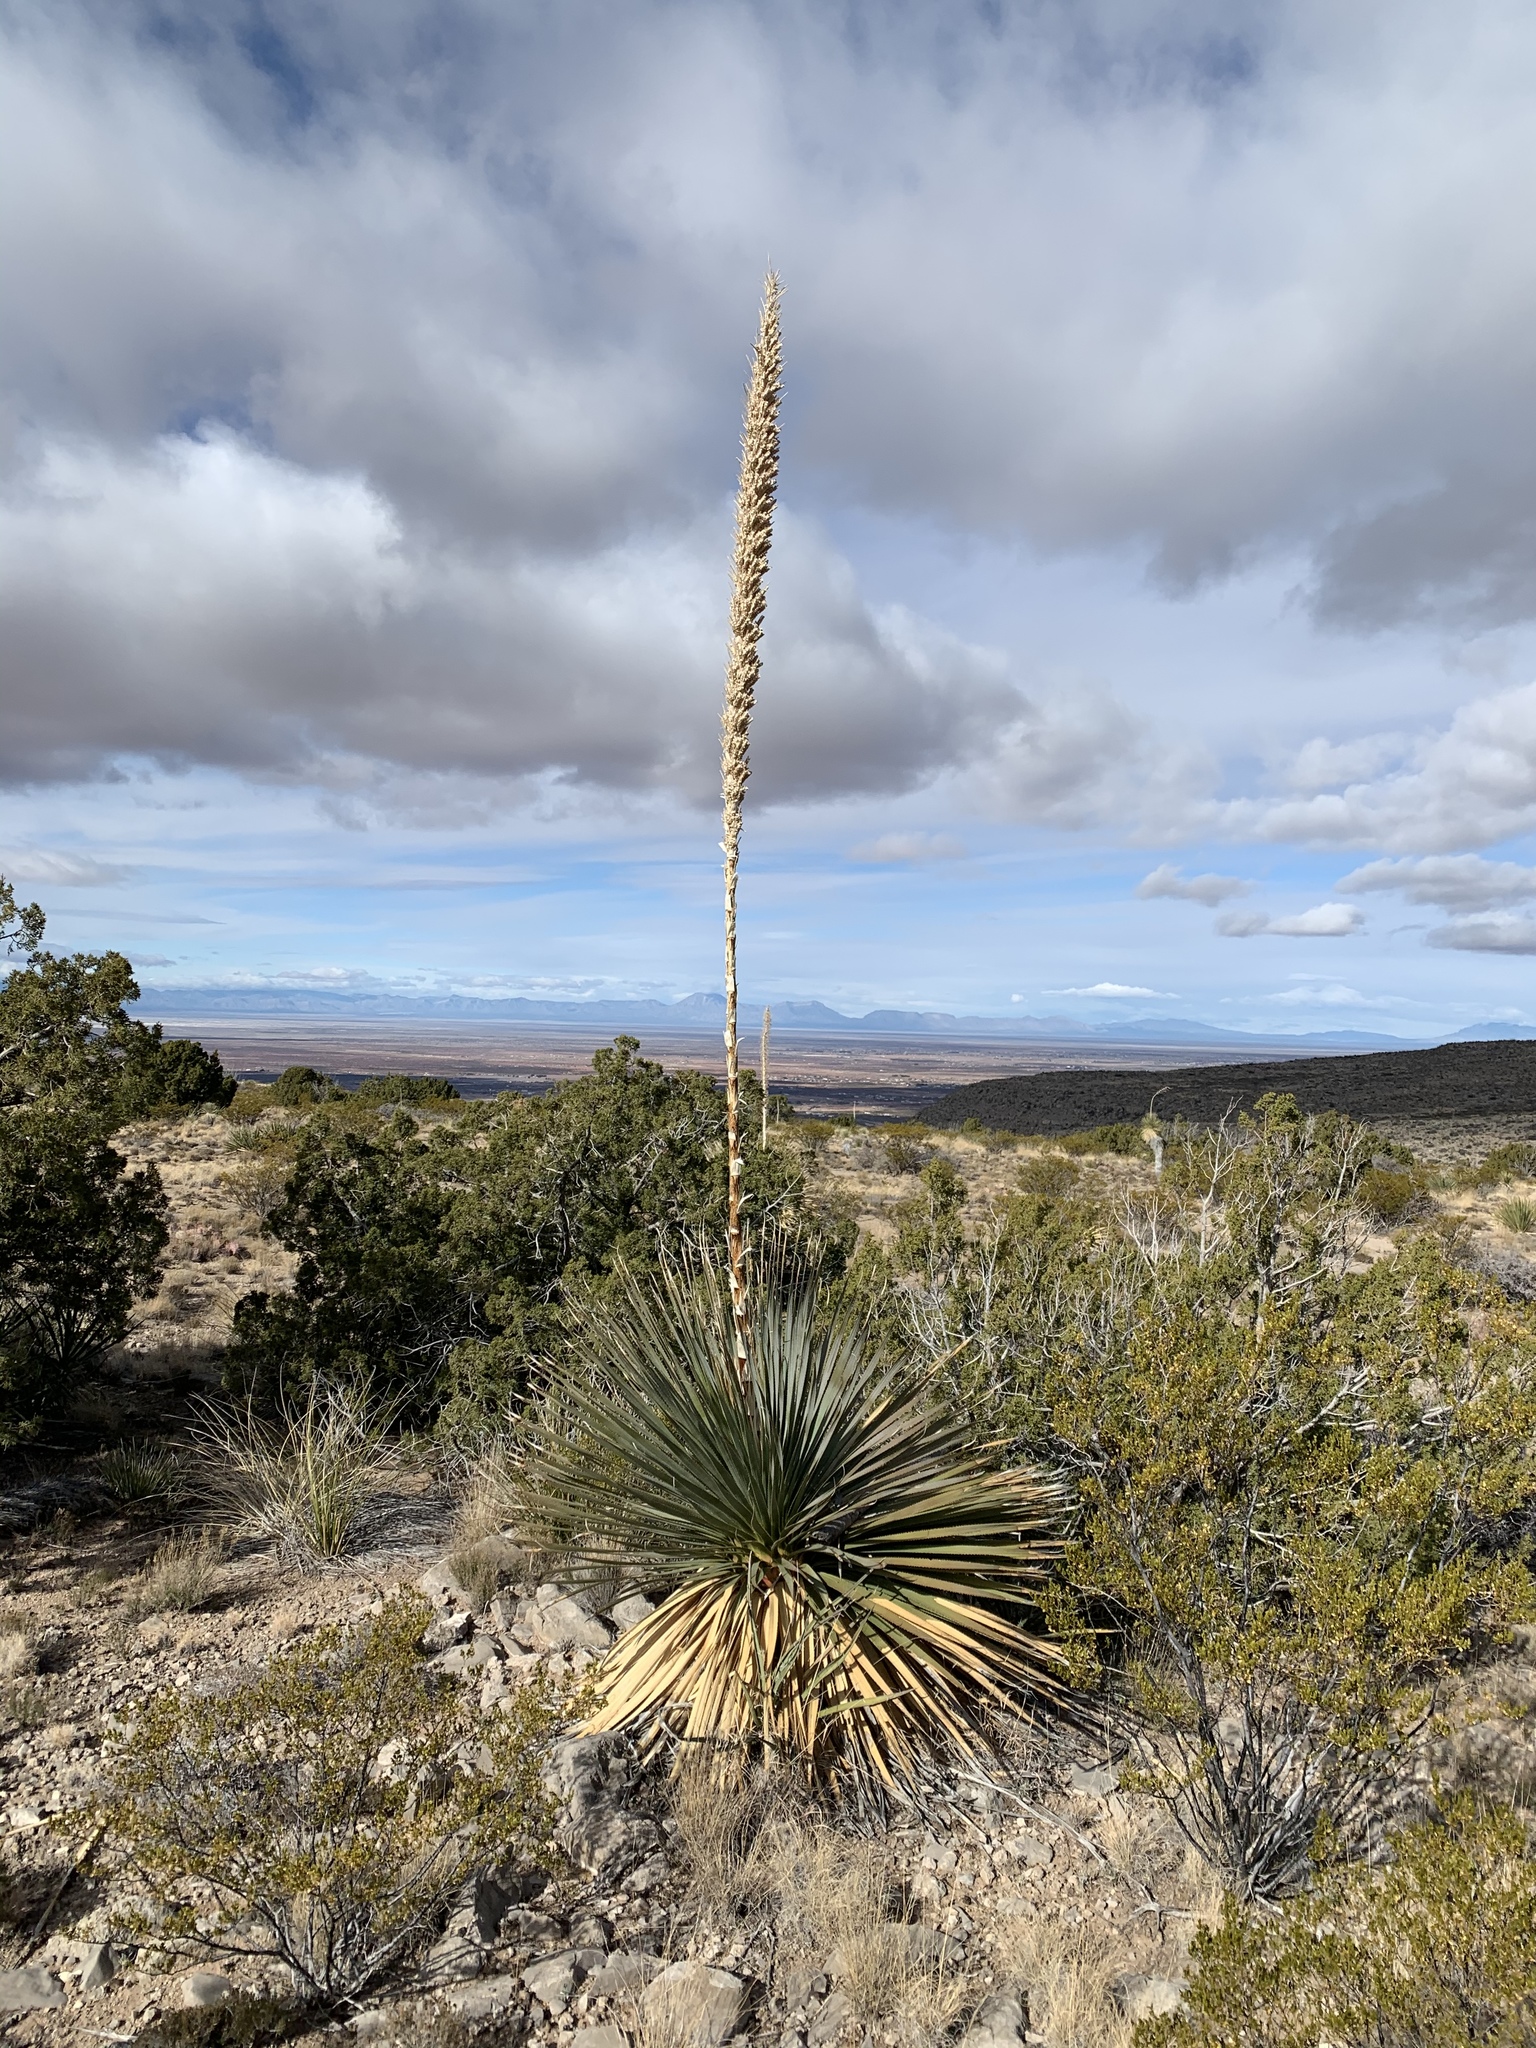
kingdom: Plantae
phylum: Tracheophyta
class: Liliopsida
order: Asparagales
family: Asparagaceae
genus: Dasylirion
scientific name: Dasylirion wheeleri
